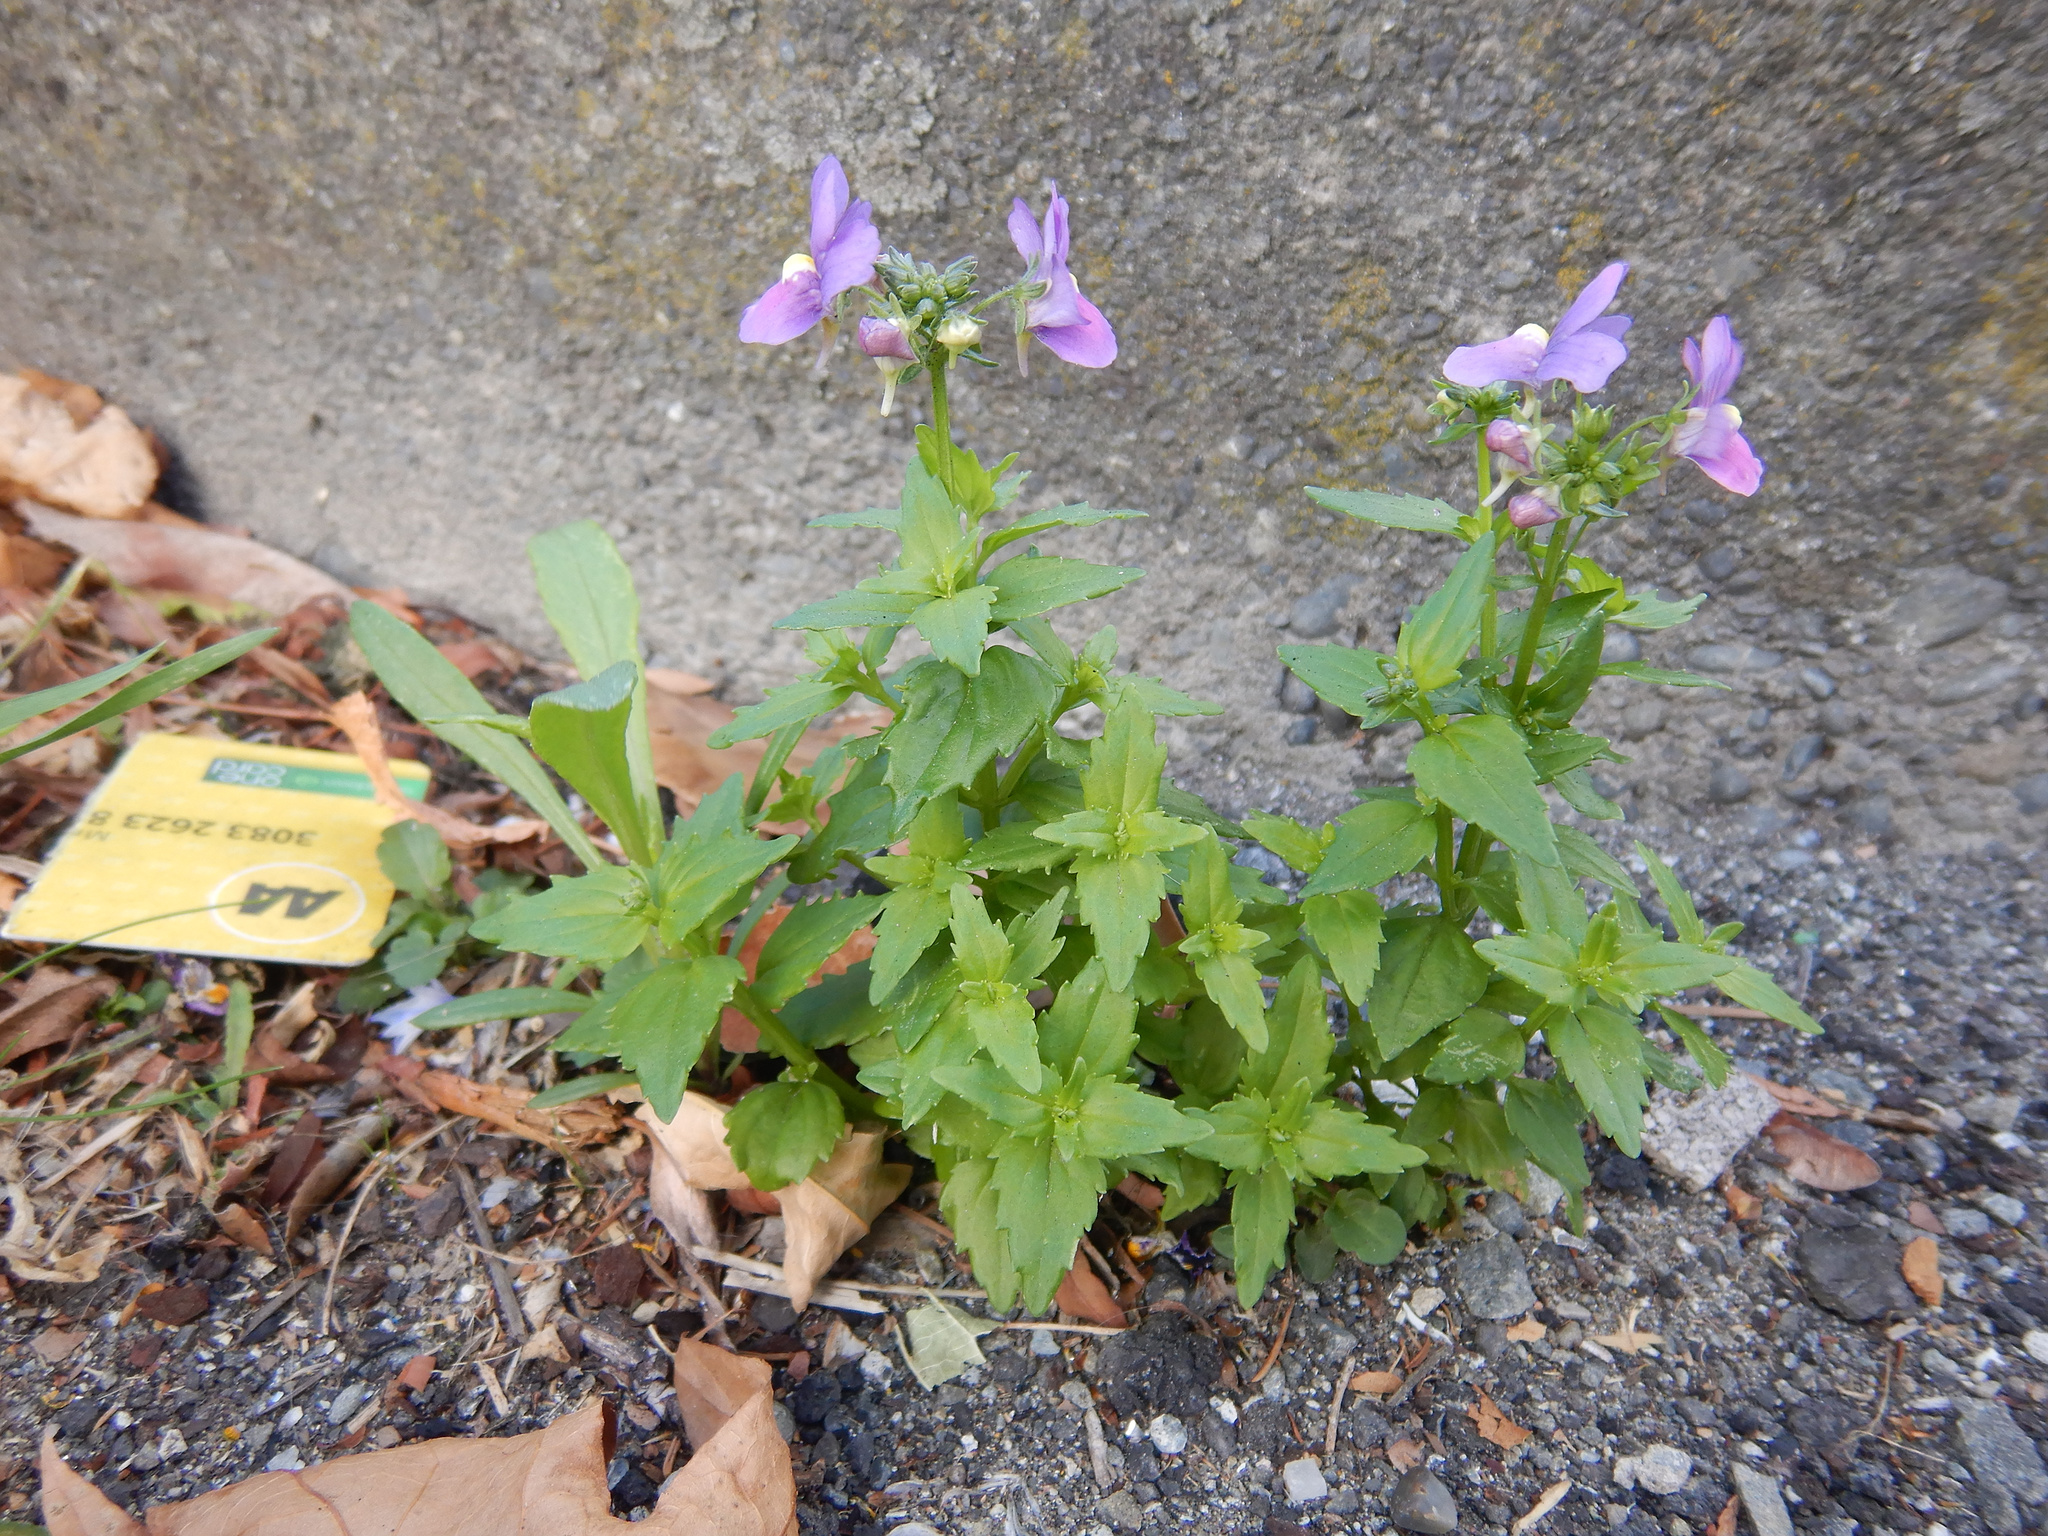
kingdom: Plantae
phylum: Tracheophyta
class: Magnoliopsida
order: Lamiales
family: Scrophulariaceae
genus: Nemesia
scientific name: Nemesia fruticans
